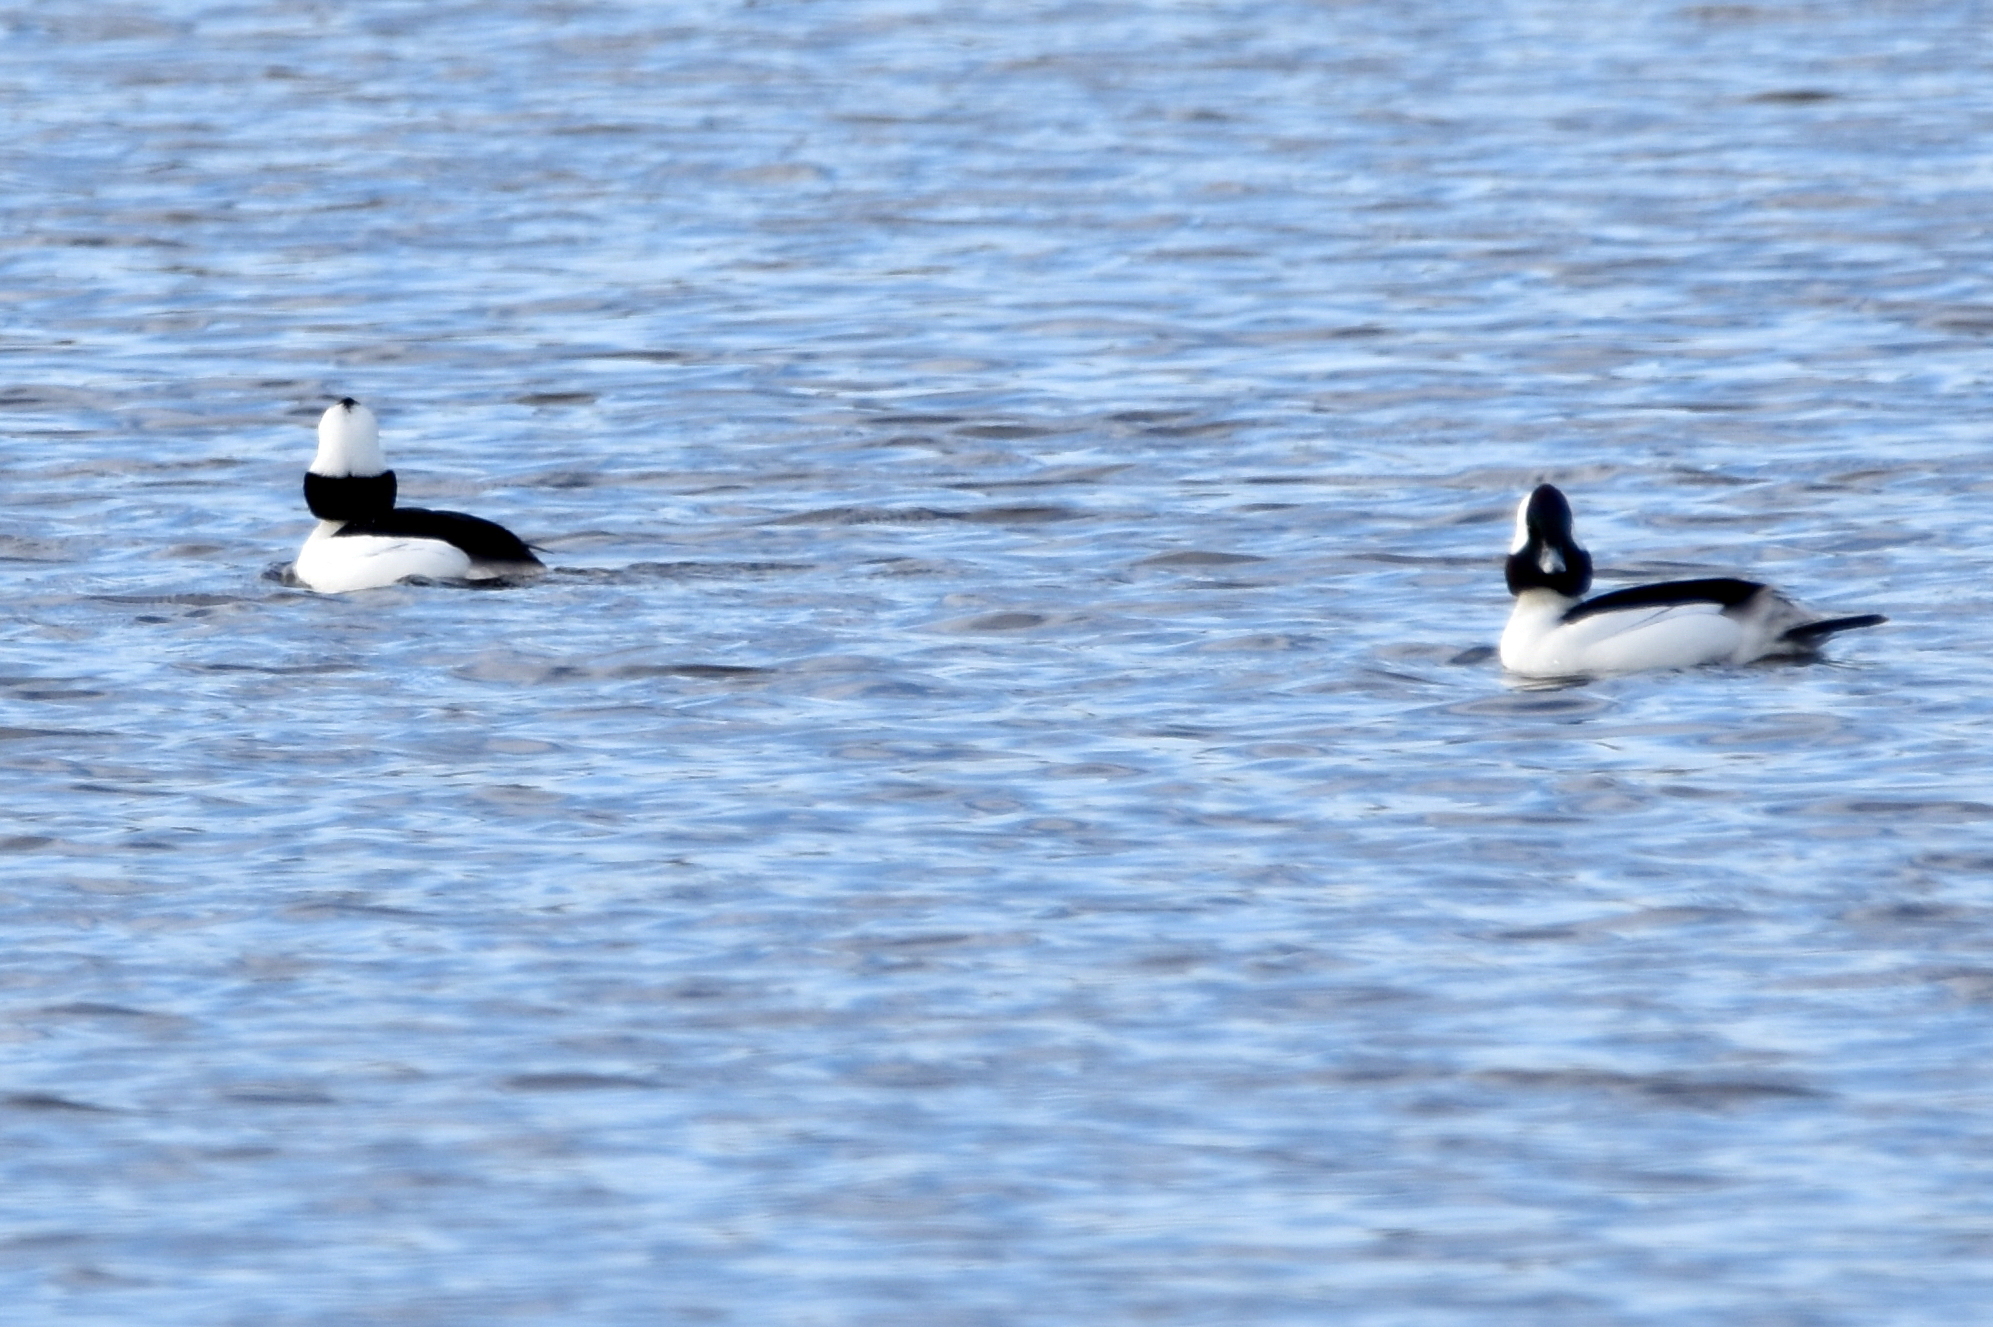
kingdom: Animalia
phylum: Chordata
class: Aves
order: Anseriformes
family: Anatidae
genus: Bucephala
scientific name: Bucephala albeola
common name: Bufflehead
